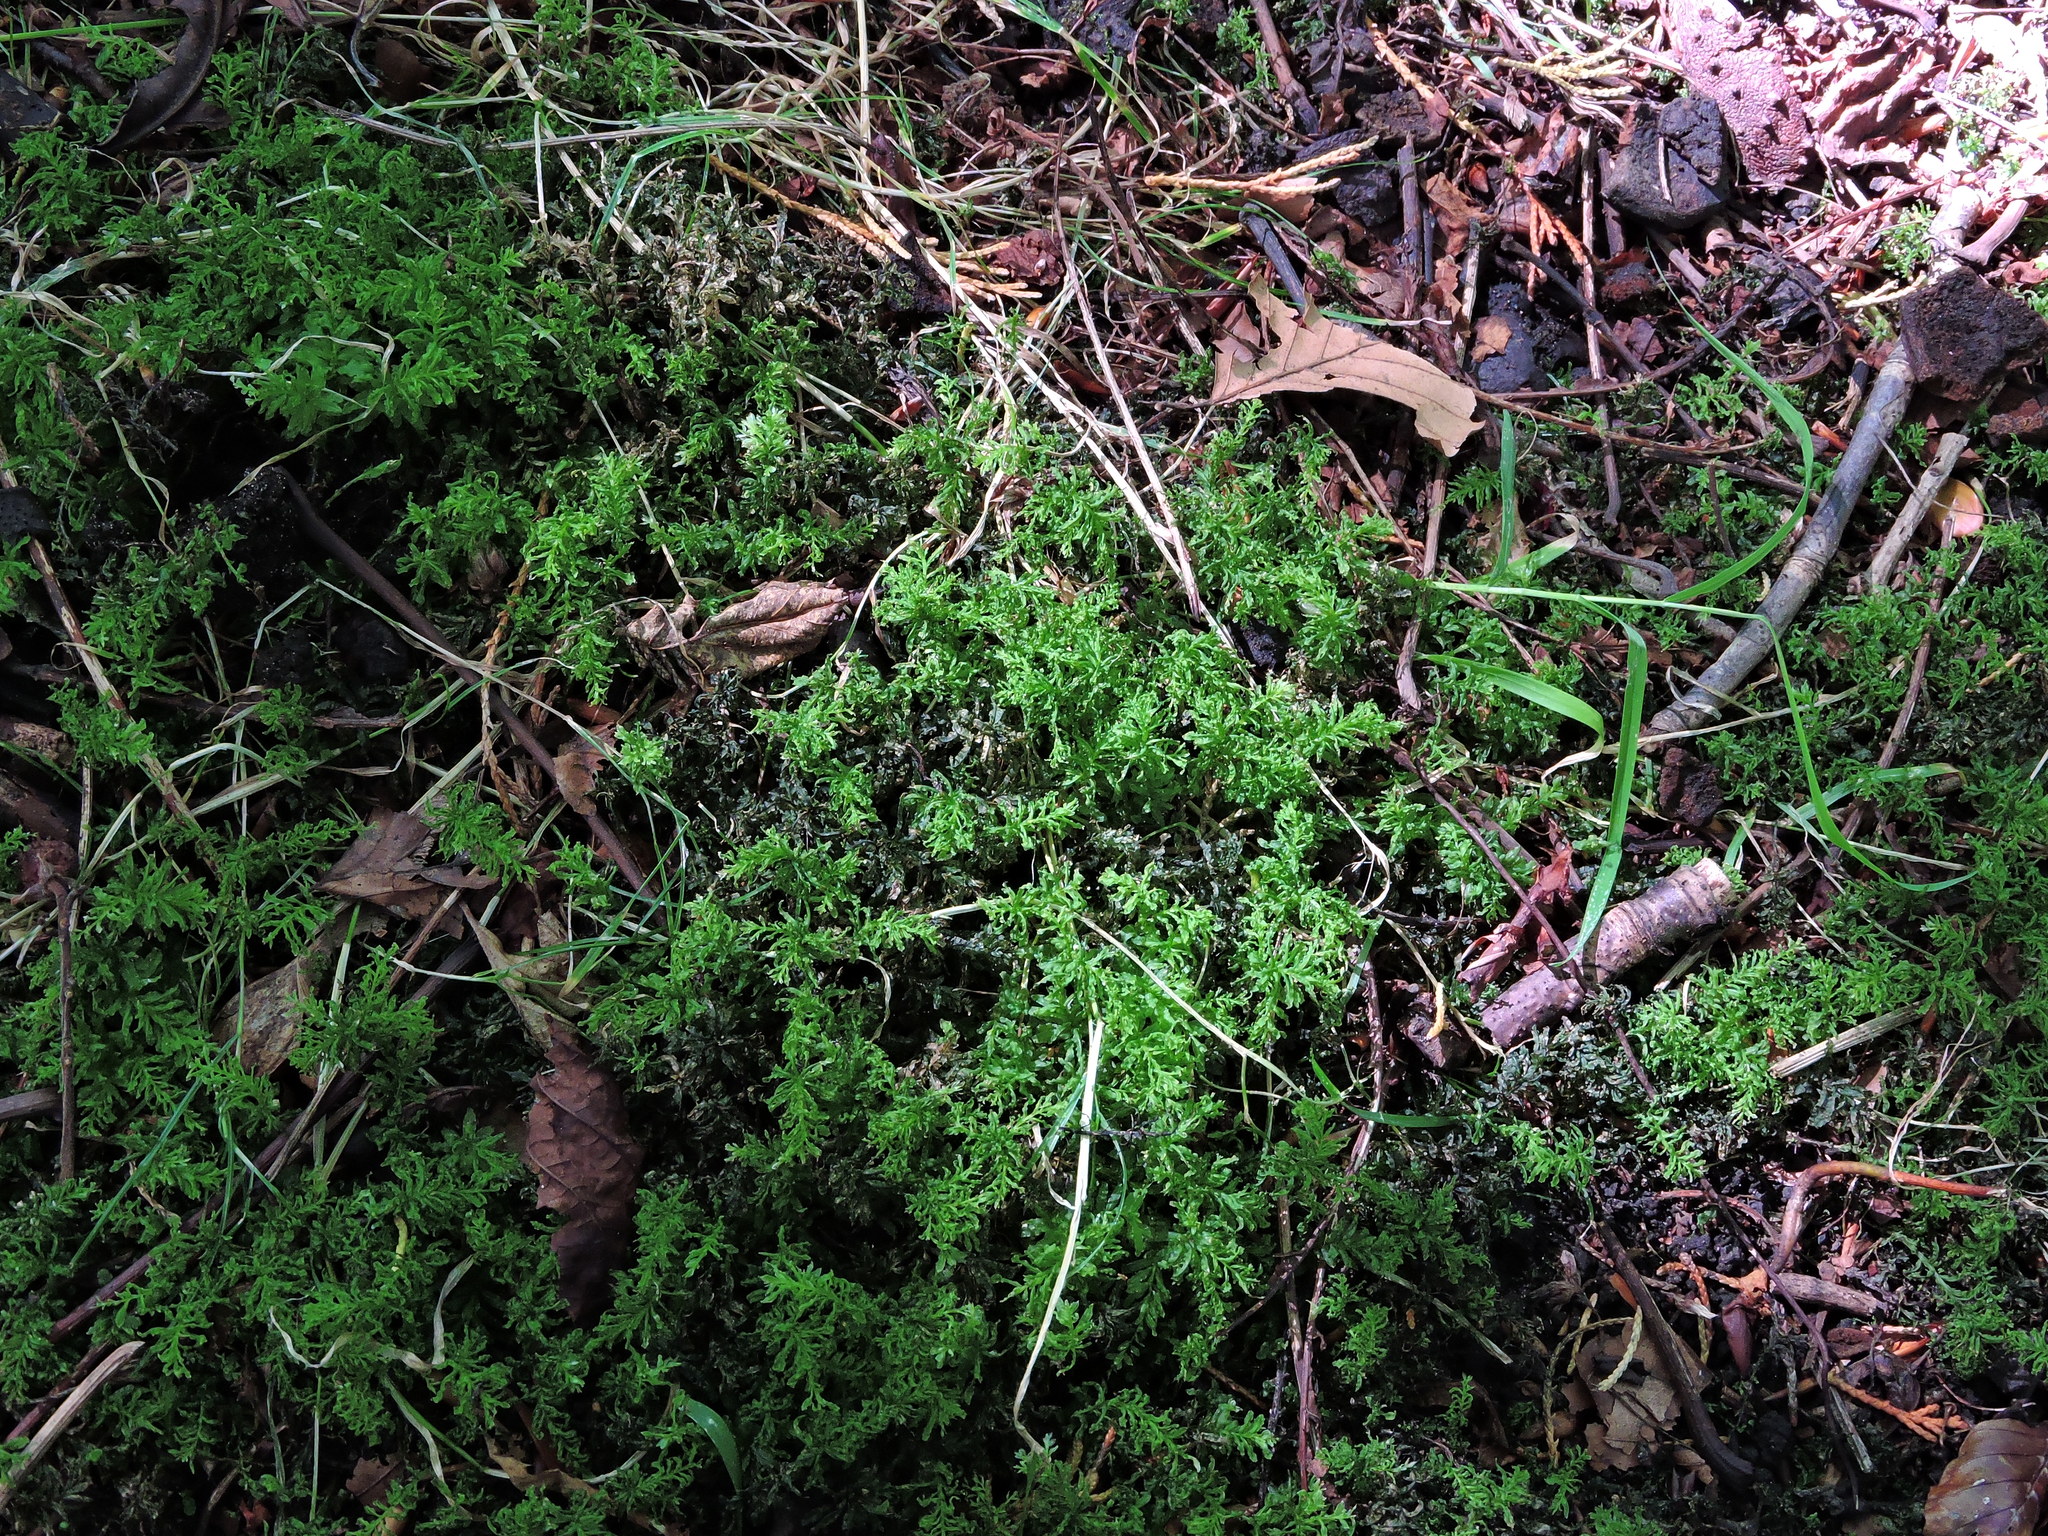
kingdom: Plantae
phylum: Bryophyta
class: Bryopsida
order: Bryales
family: Mniaceae
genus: Plagiomnium
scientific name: Plagiomnium undulatum
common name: Hart's-tongue thyme-moss
